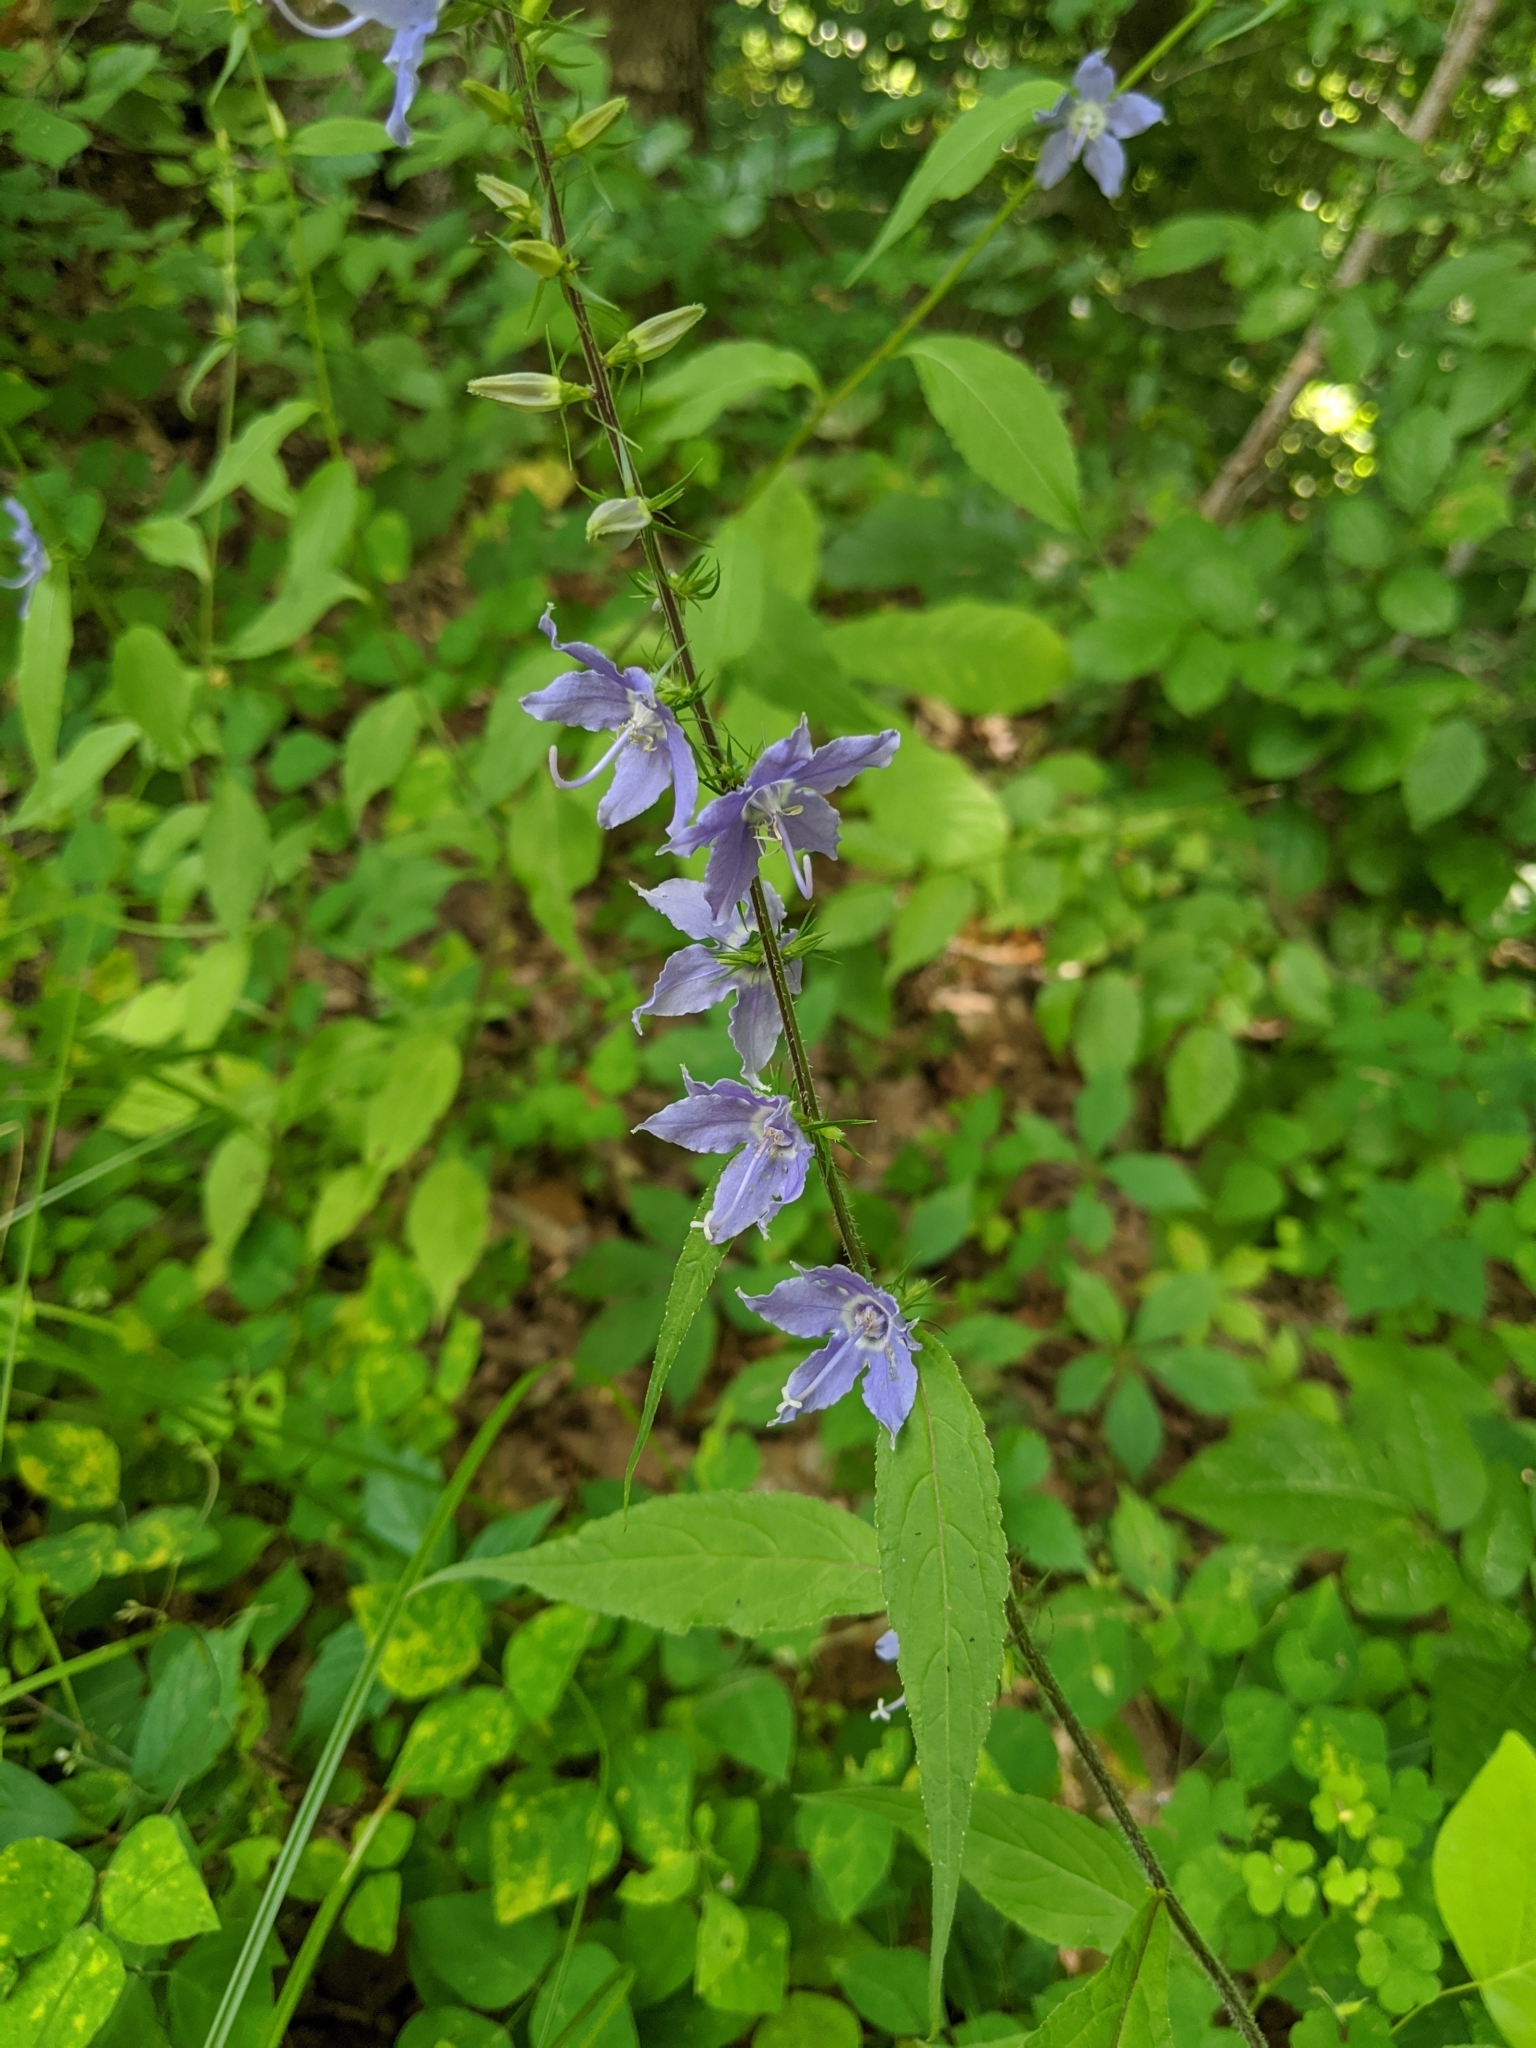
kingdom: Plantae
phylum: Tracheophyta
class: Magnoliopsida
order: Asterales
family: Campanulaceae
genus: Campanulastrum
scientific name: Campanulastrum americanum
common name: American bellflower
